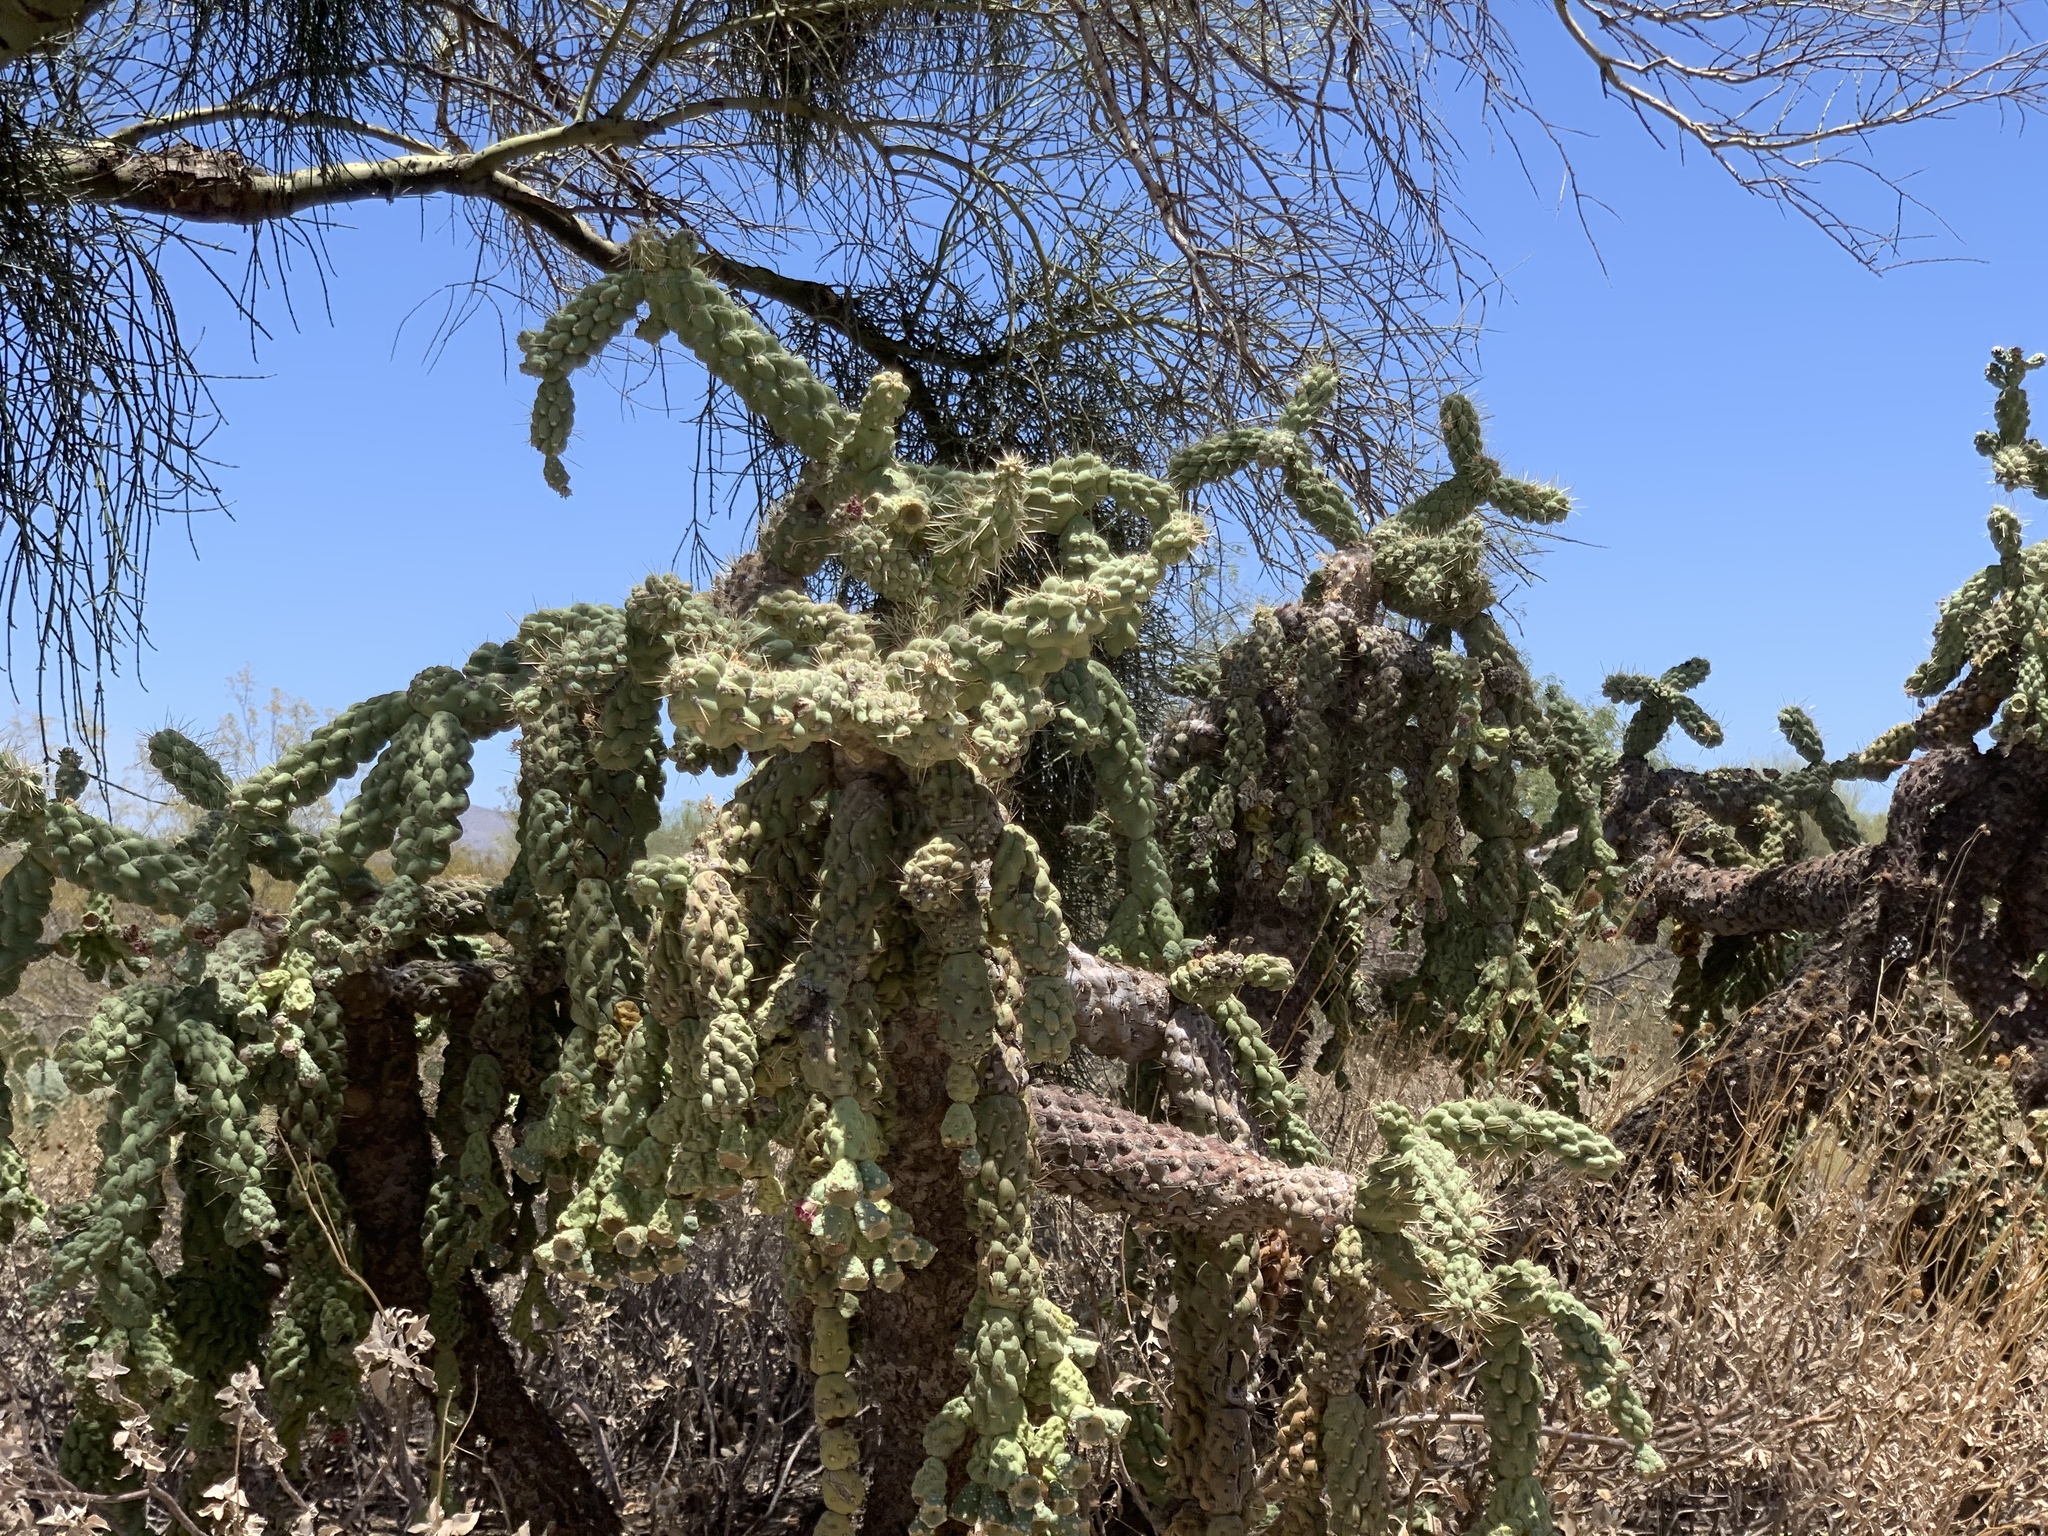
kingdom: Plantae
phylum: Tracheophyta
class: Magnoliopsida
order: Caryophyllales
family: Cactaceae
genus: Cylindropuntia
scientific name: Cylindropuntia fulgida
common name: Jumping cholla
